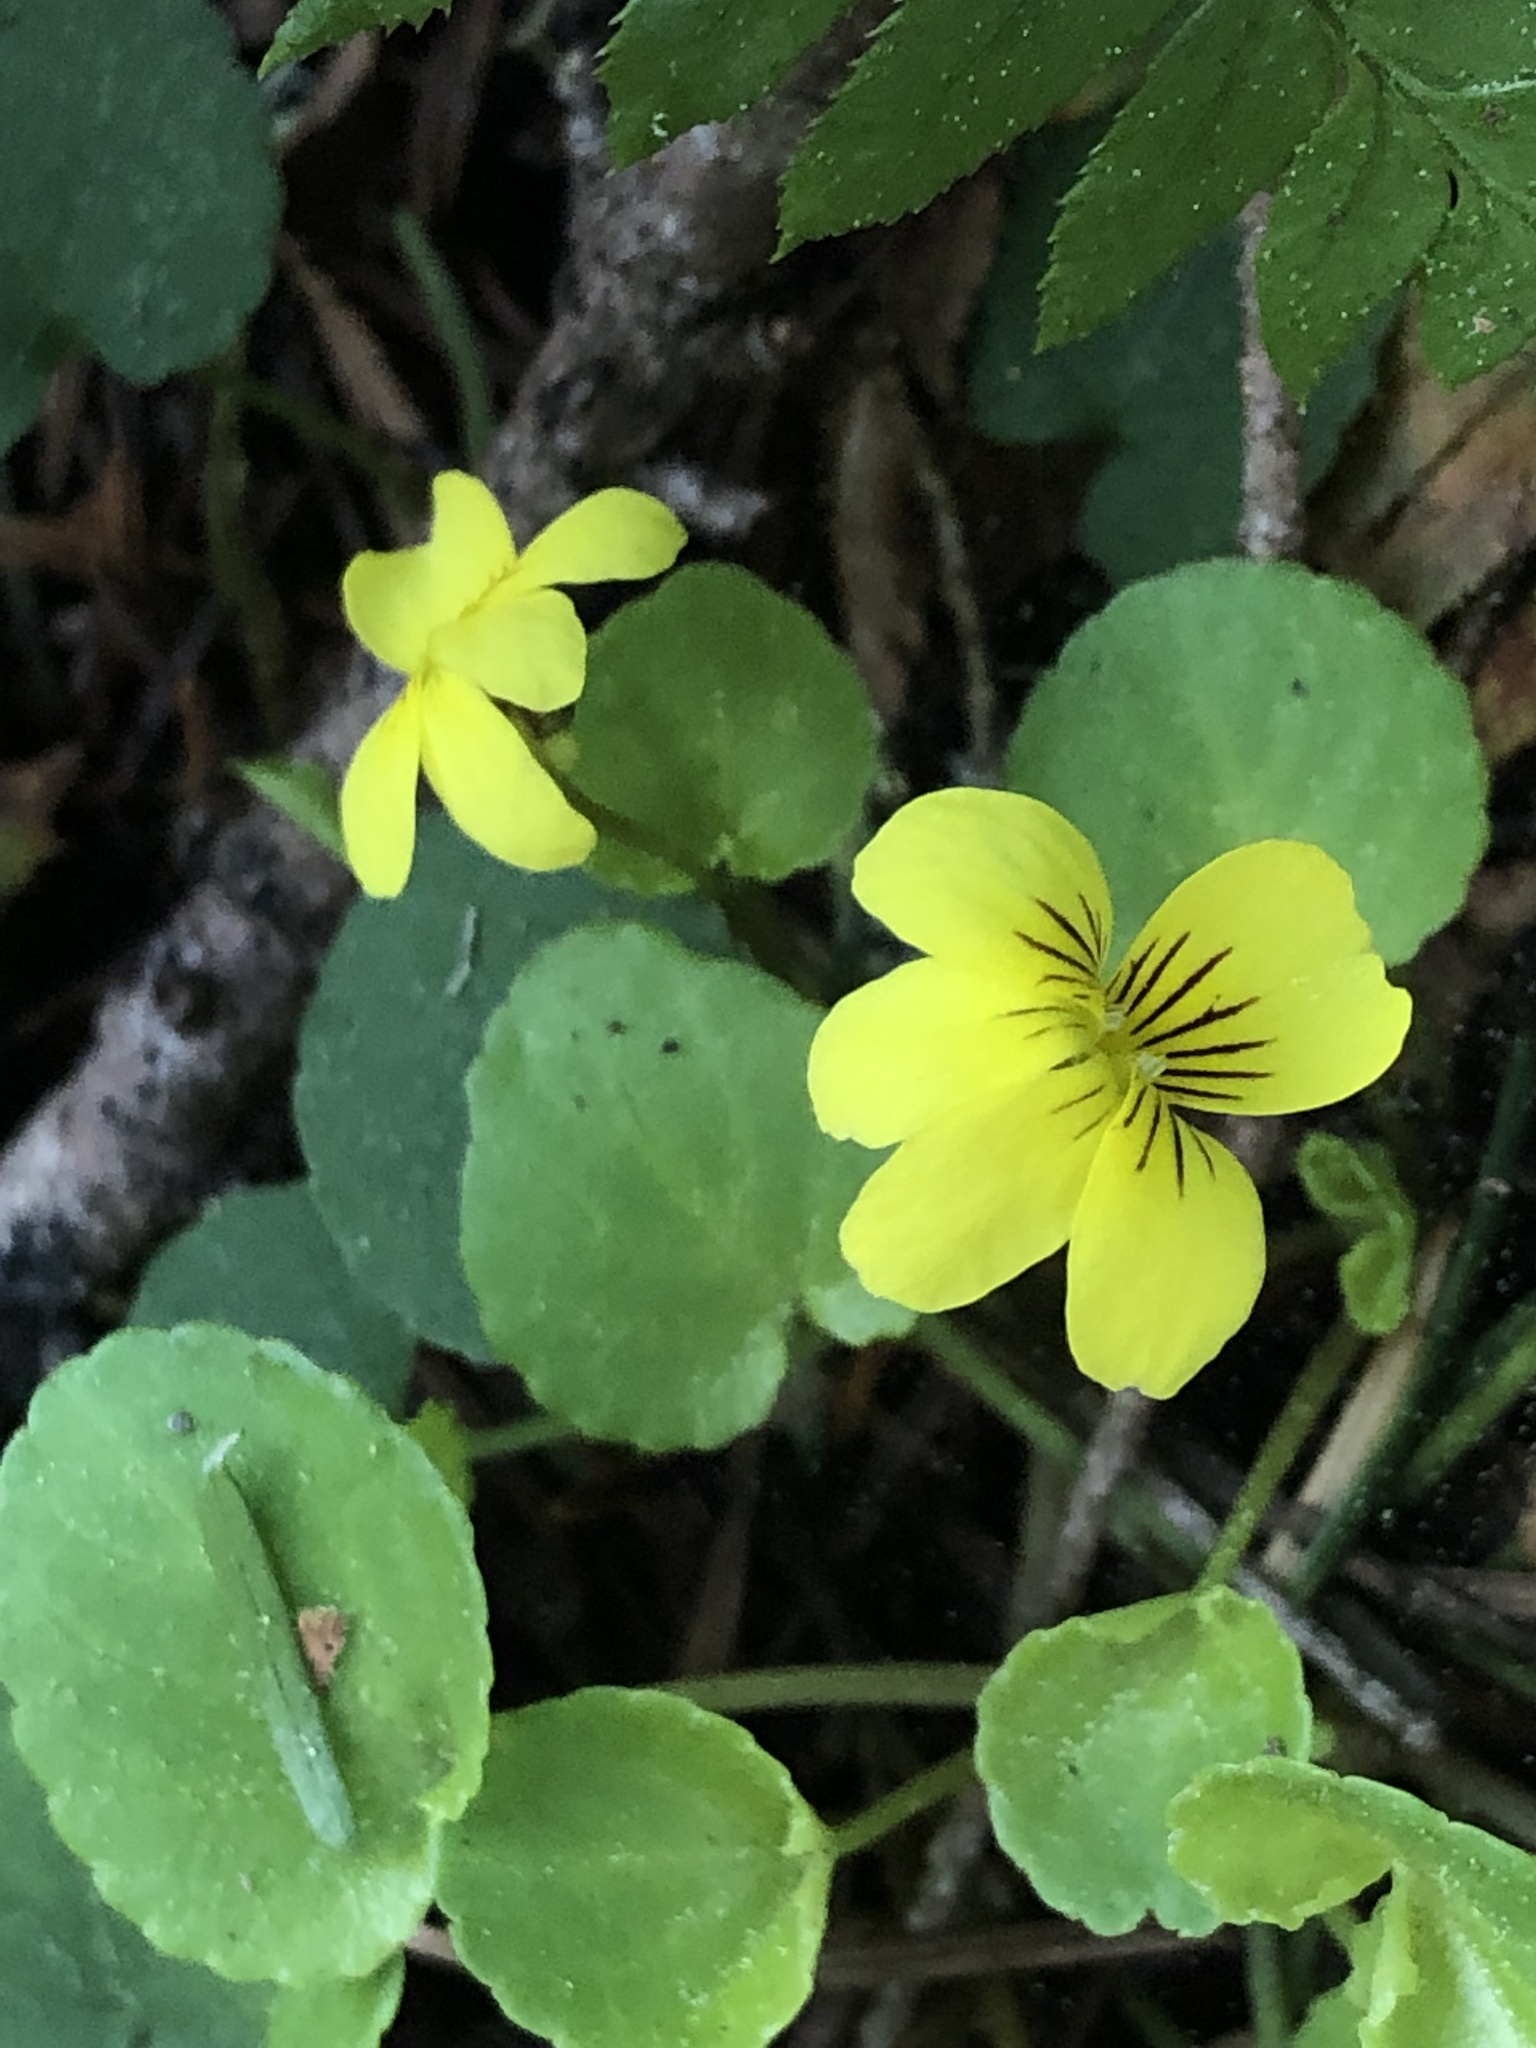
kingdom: Plantae
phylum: Tracheophyta
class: Magnoliopsida
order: Malpighiales
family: Violaceae
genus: Viola
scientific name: Viola sempervirens
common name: Evergreen violet
